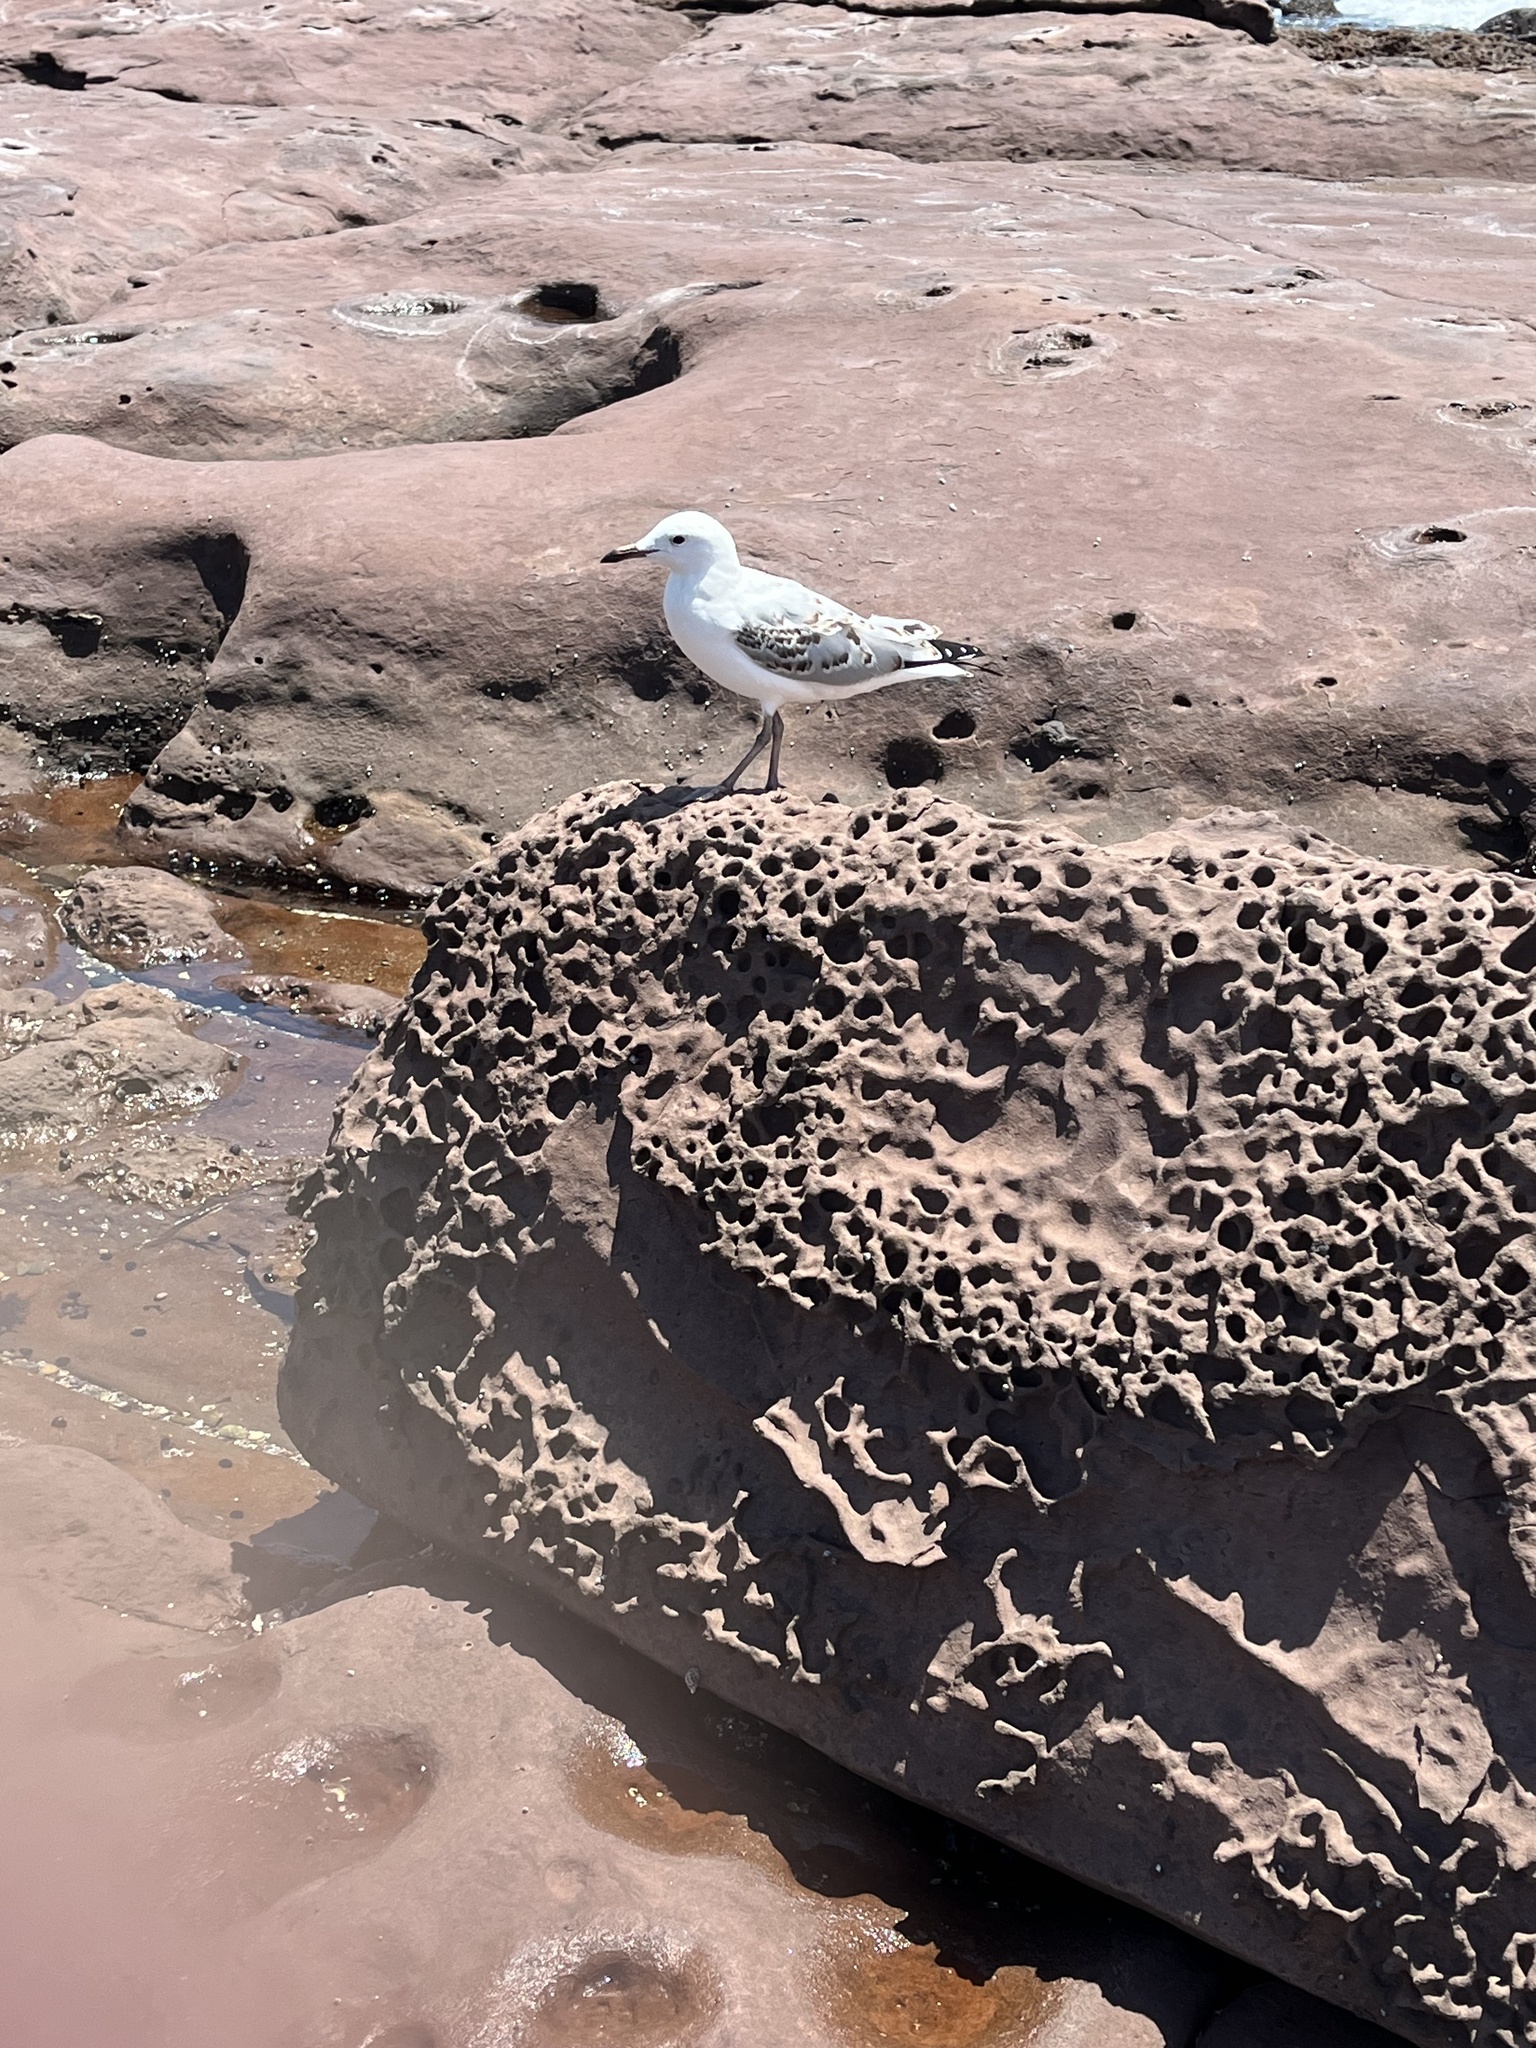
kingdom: Animalia
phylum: Chordata
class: Aves
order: Charadriiformes
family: Laridae
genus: Chroicocephalus
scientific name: Chroicocephalus novaehollandiae
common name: Silver gull
